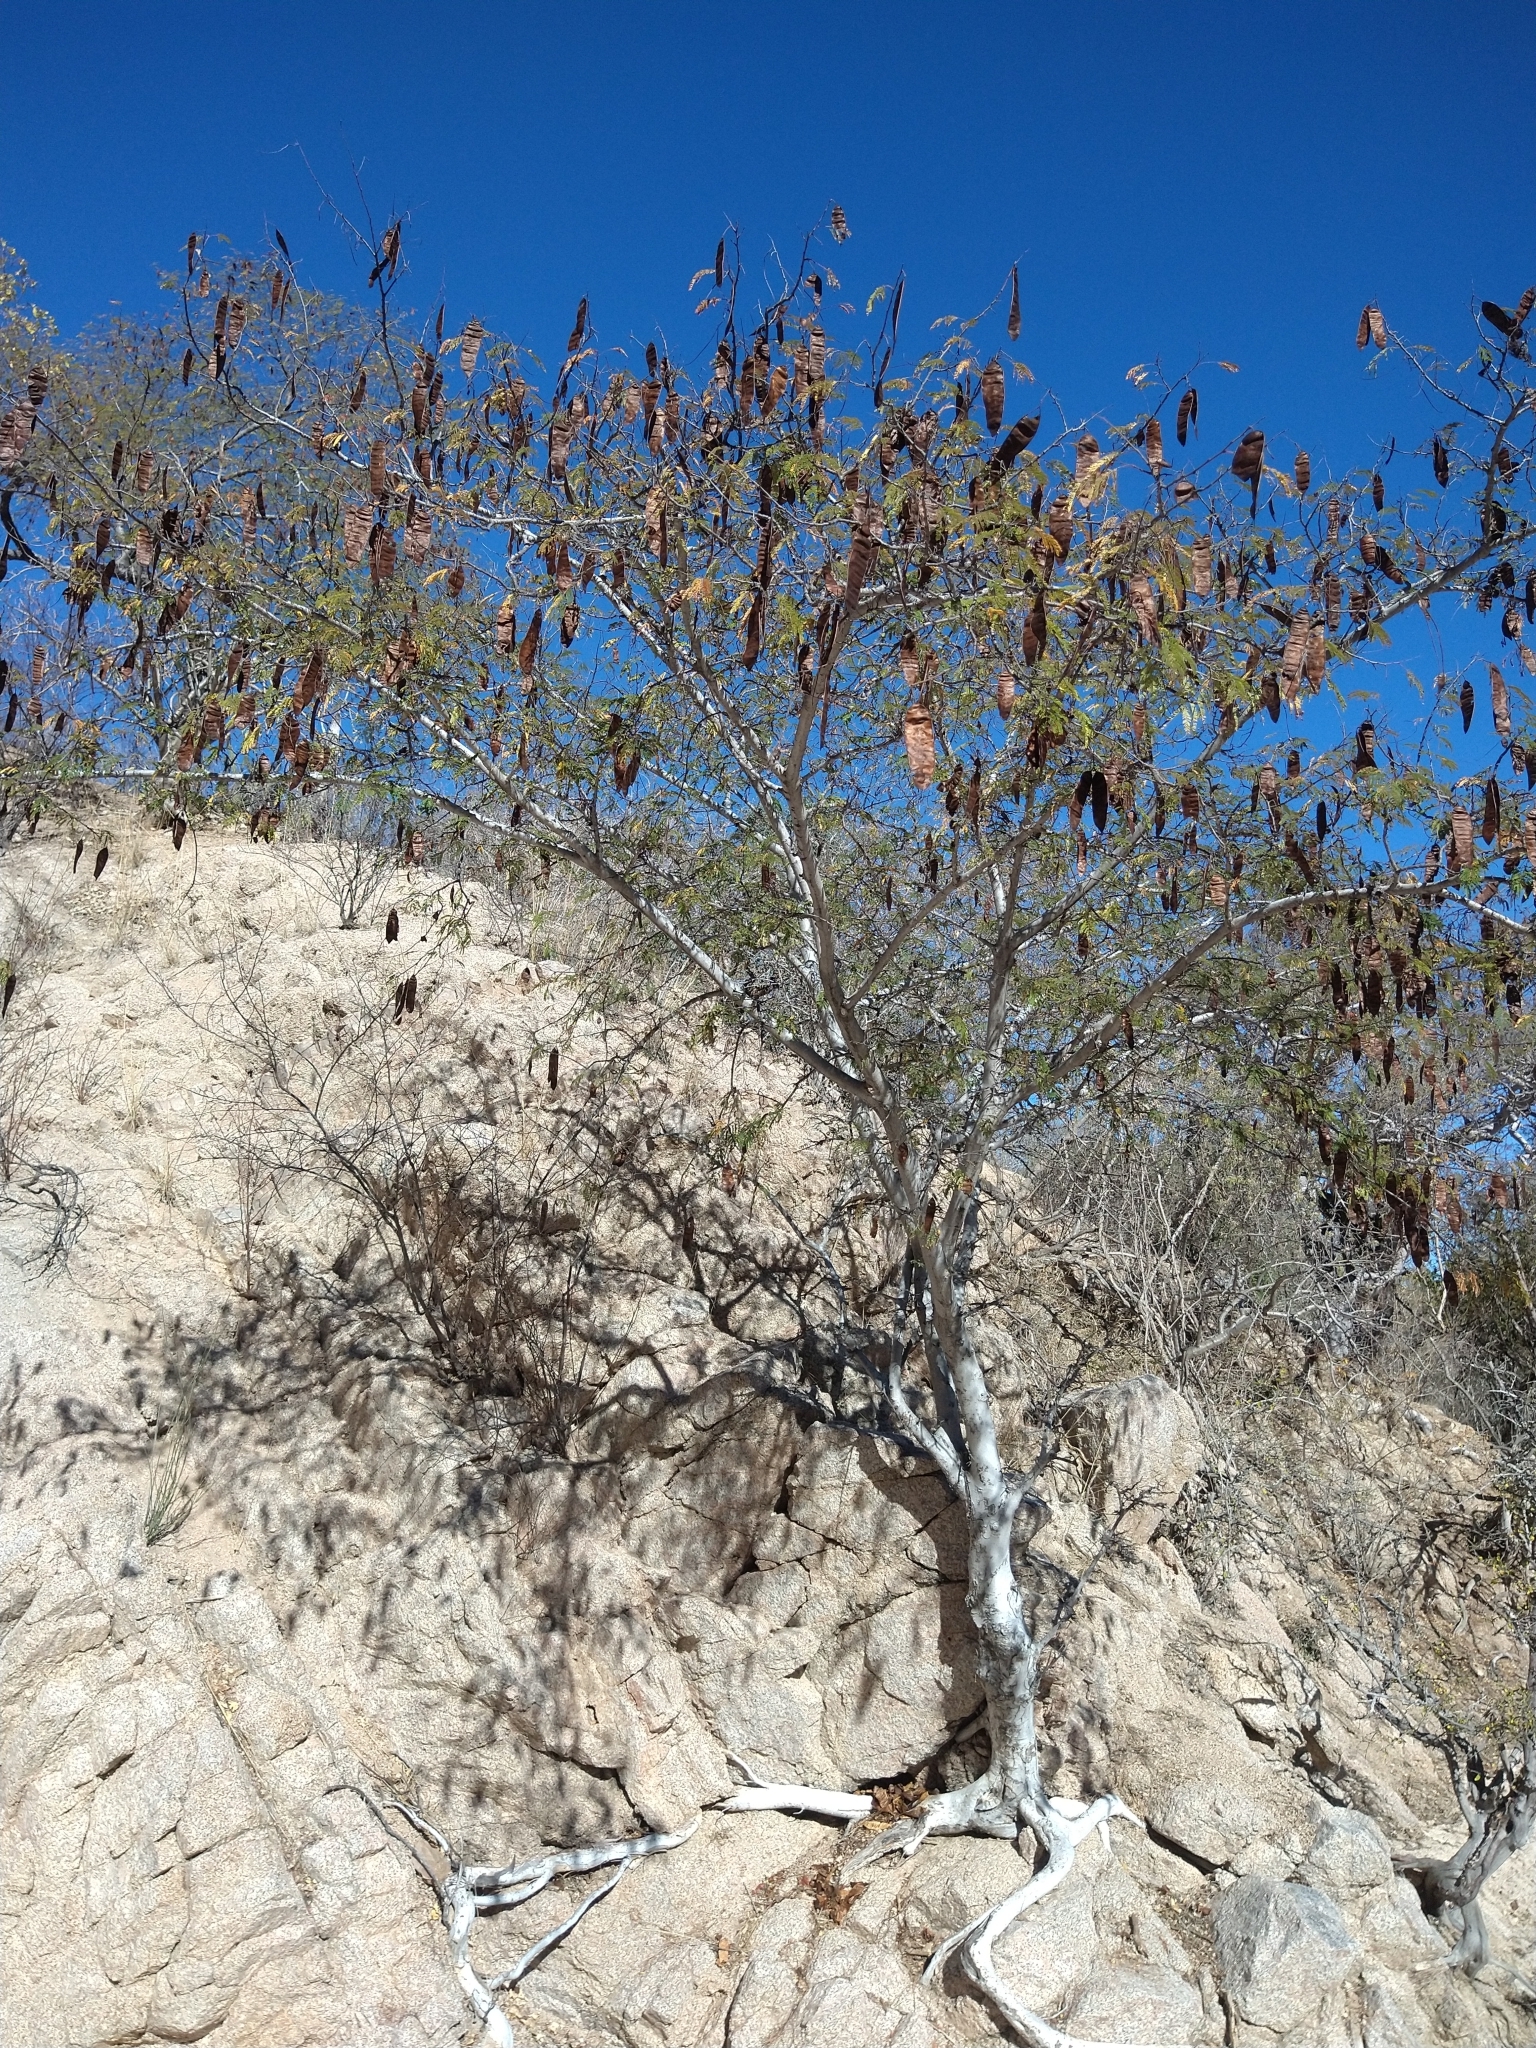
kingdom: Plantae
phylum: Tracheophyta
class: Magnoliopsida
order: Fabales
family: Fabaceae
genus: Lysiloma
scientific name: Lysiloma divaricatum
